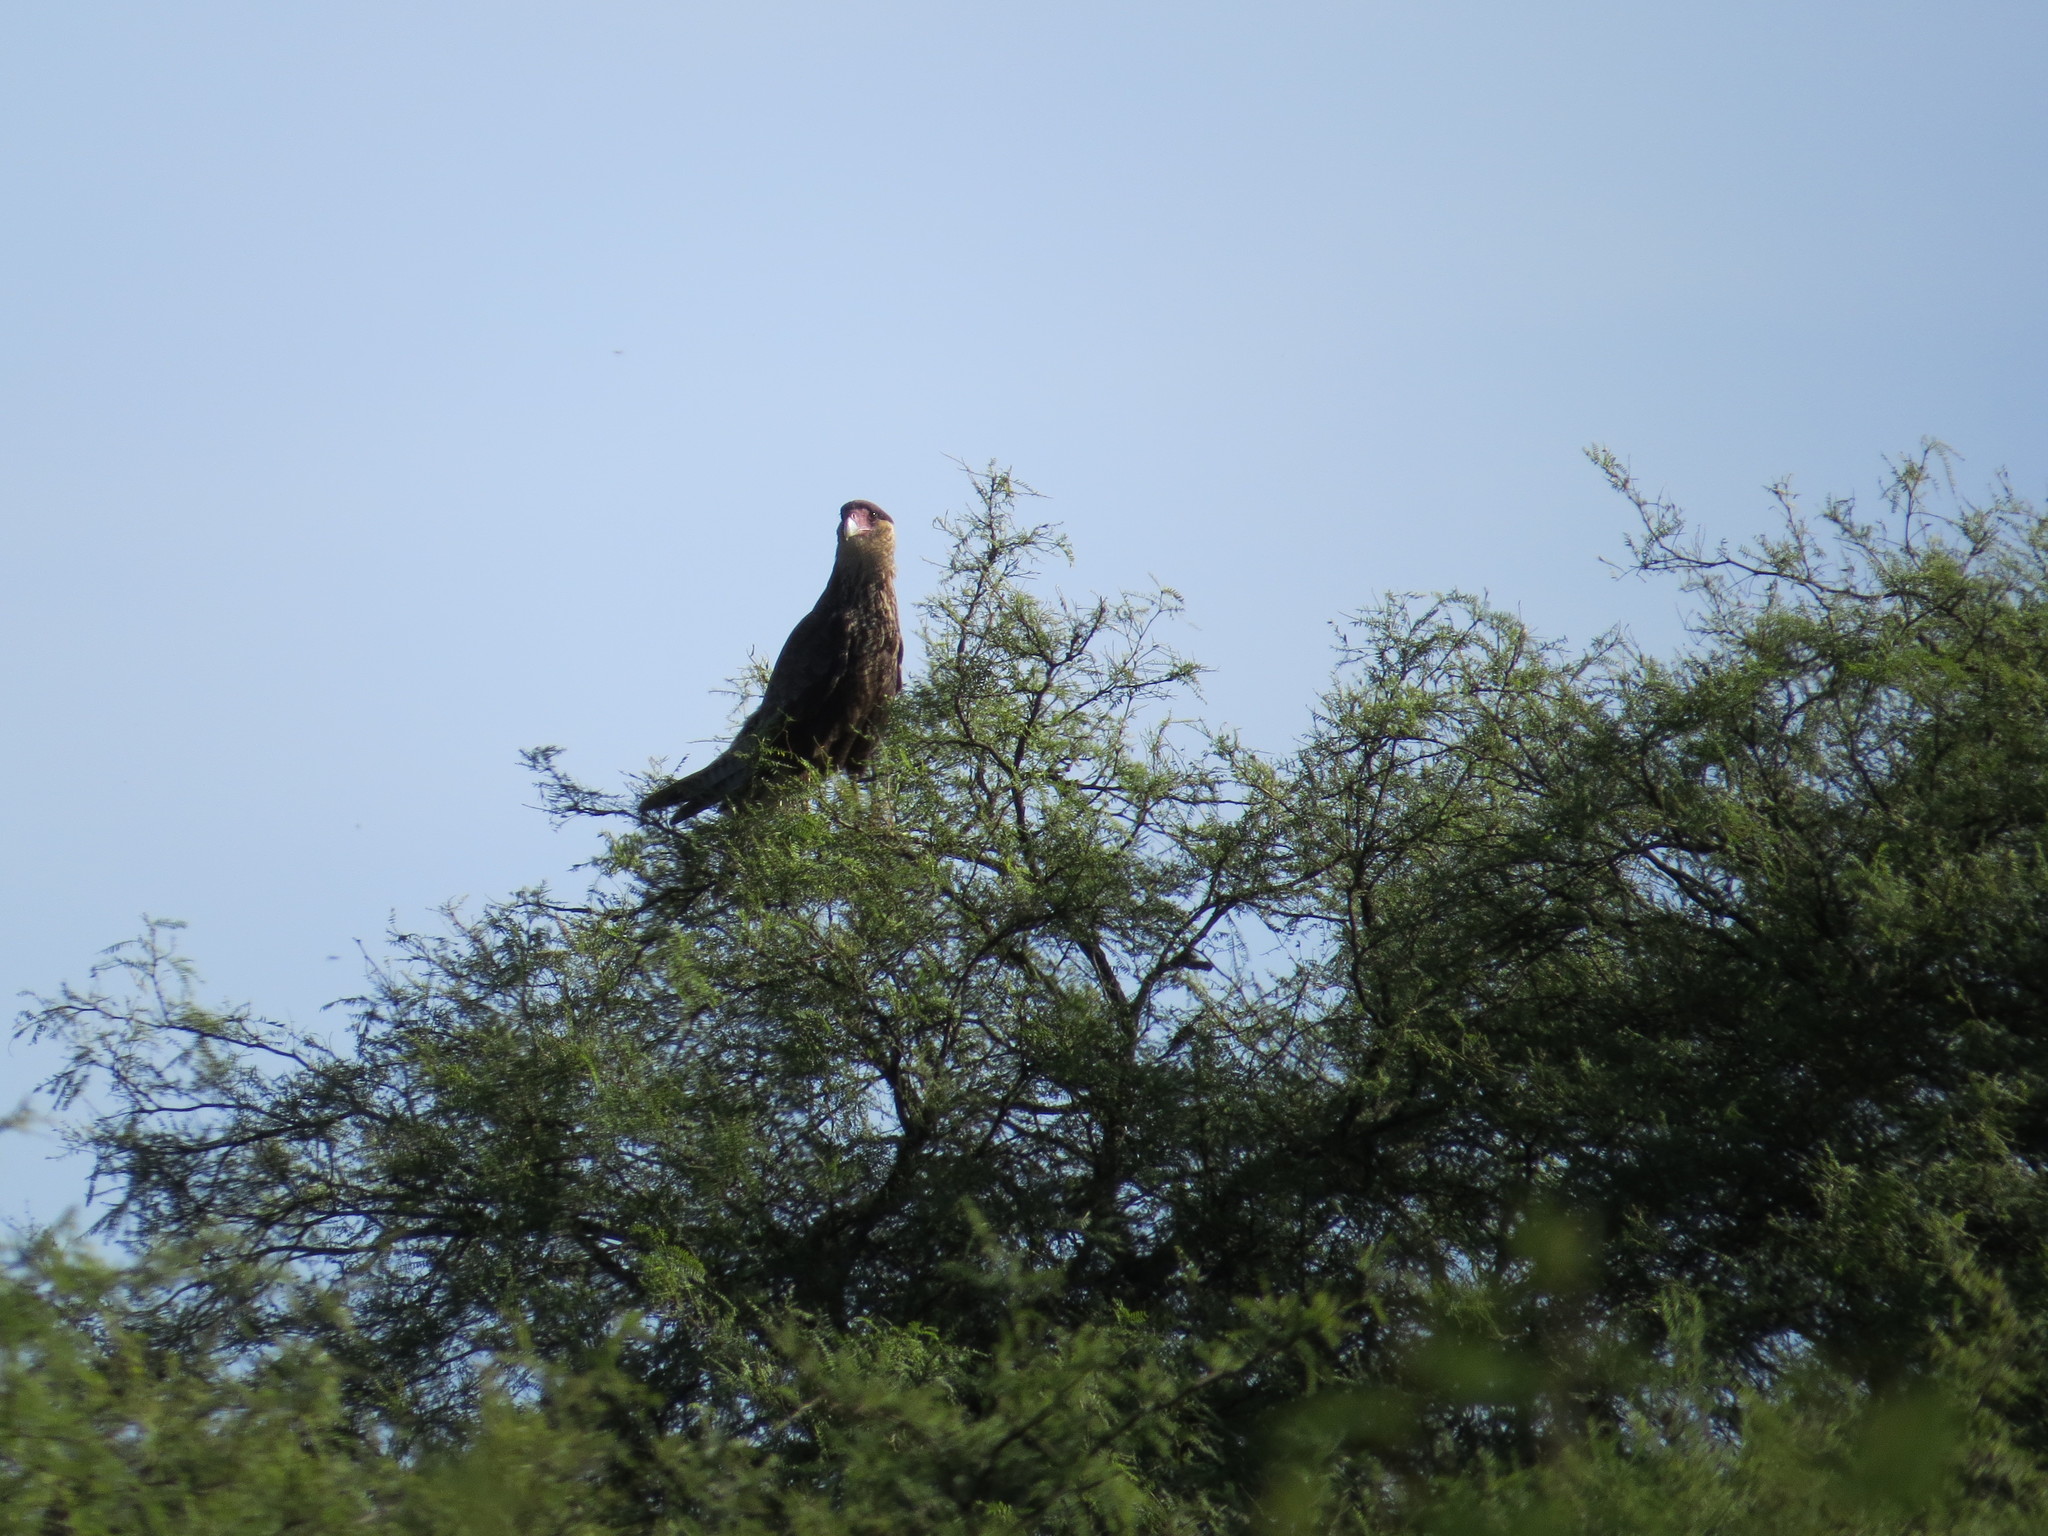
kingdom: Animalia
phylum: Chordata
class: Aves
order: Falconiformes
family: Falconidae
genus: Caracara
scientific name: Caracara plancus
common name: Southern caracara
